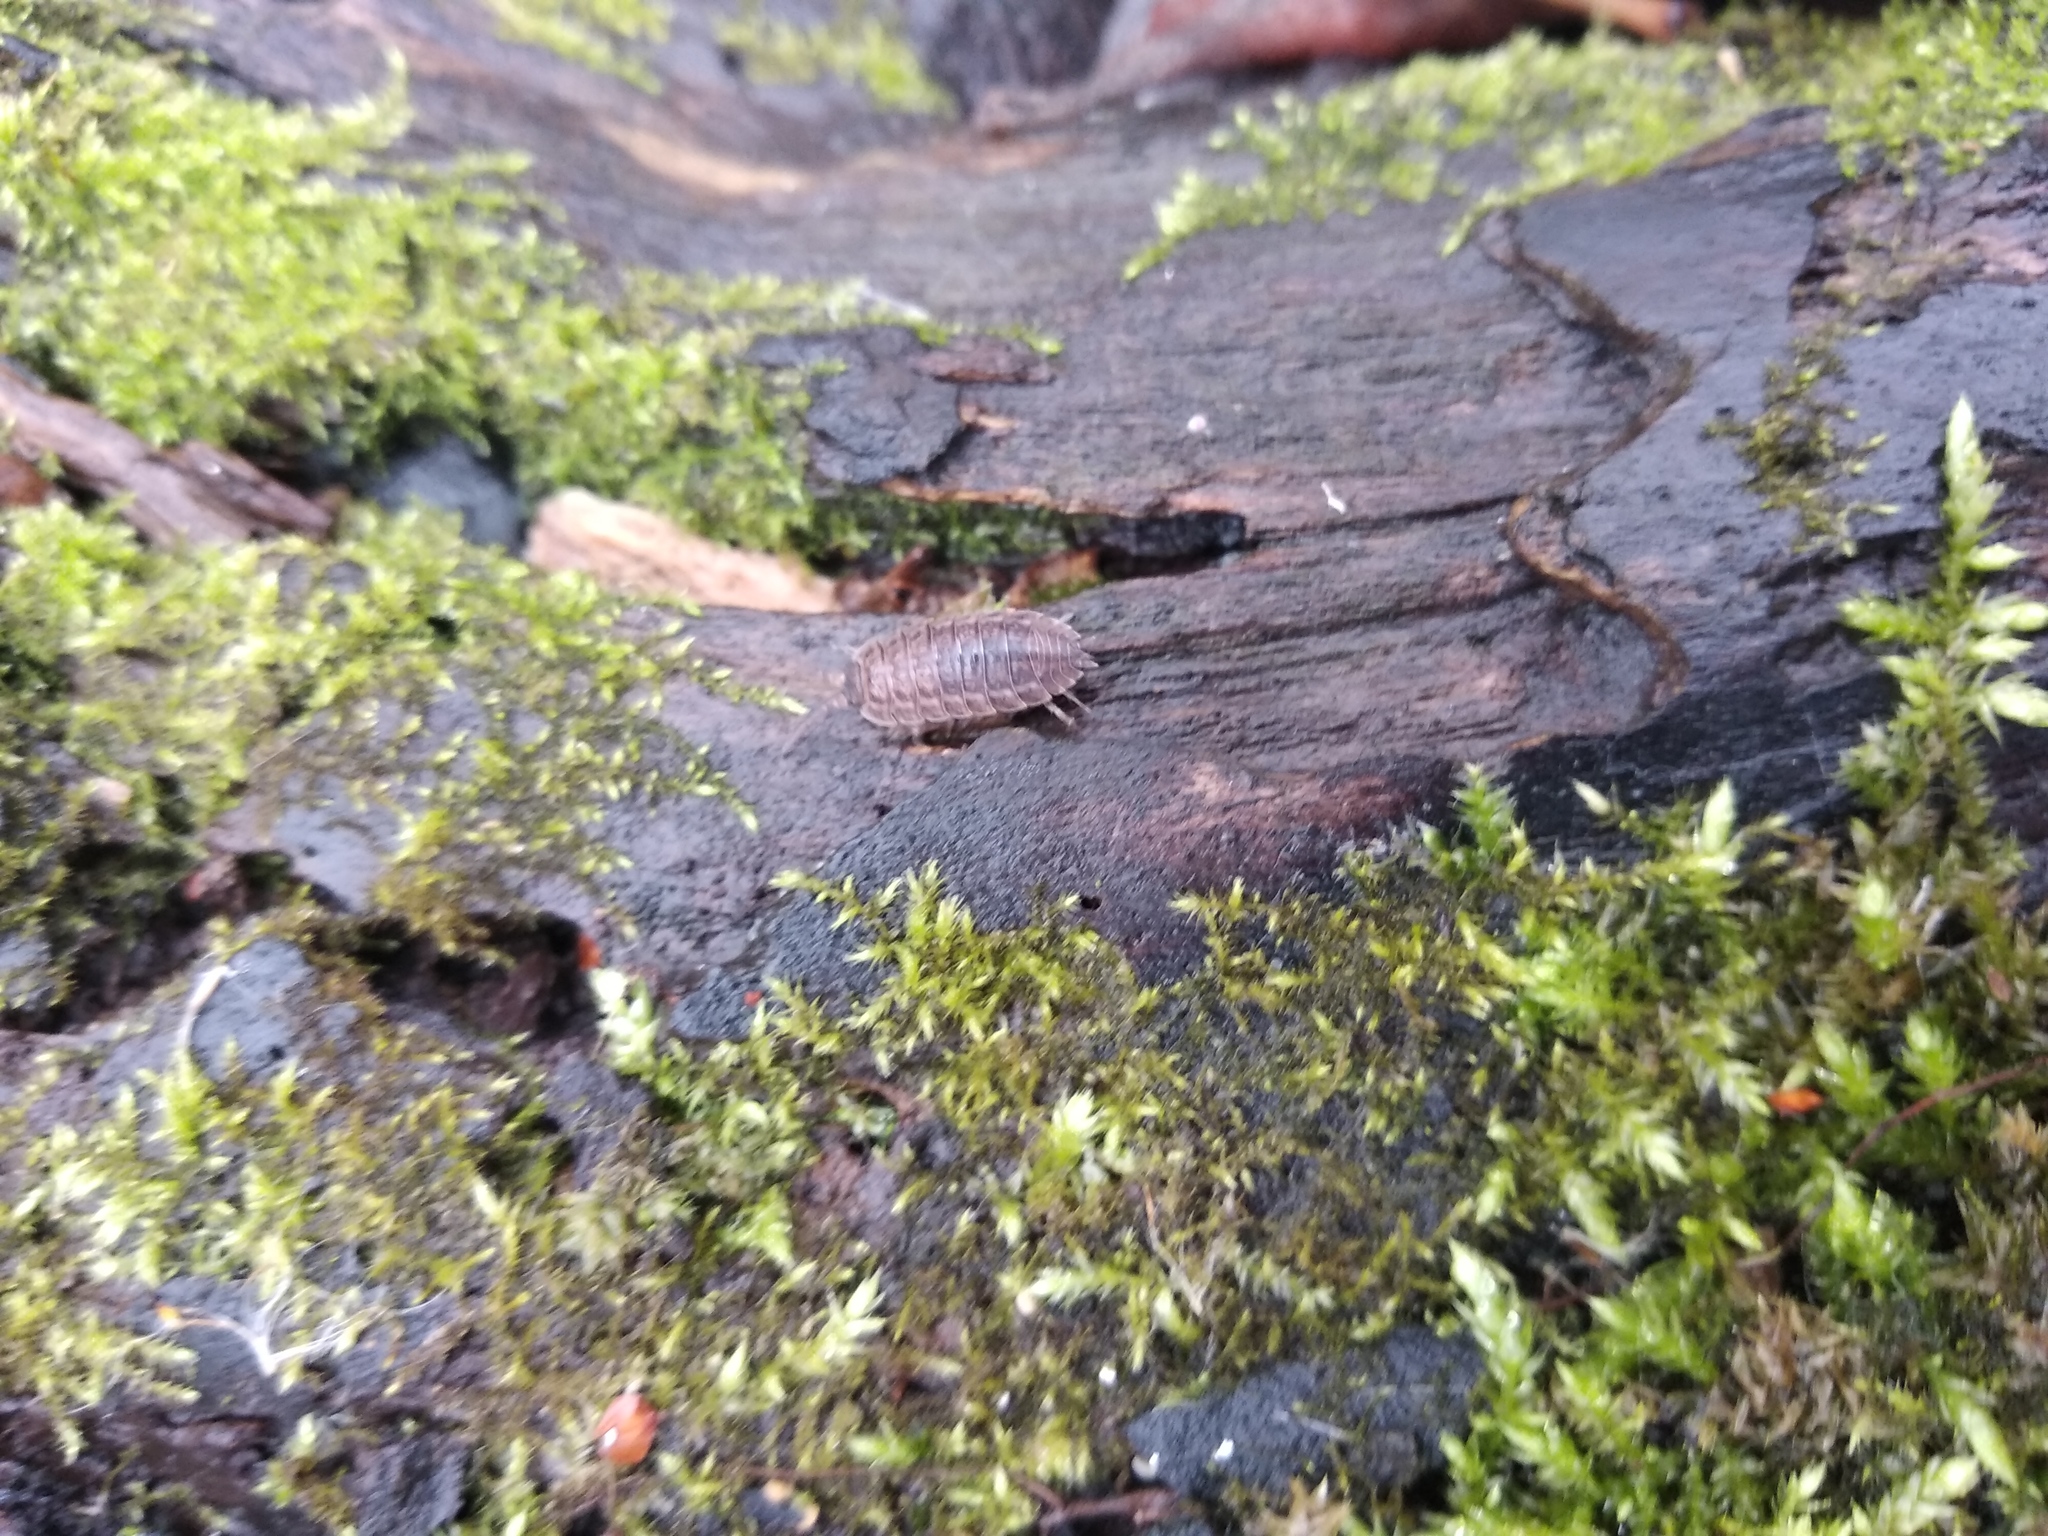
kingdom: Animalia
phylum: Arthropoda
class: Malacostraca
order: Isopoda
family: Trachelipodidae
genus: Trachelipus
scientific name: Trachelipus rathkii
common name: Isopod
